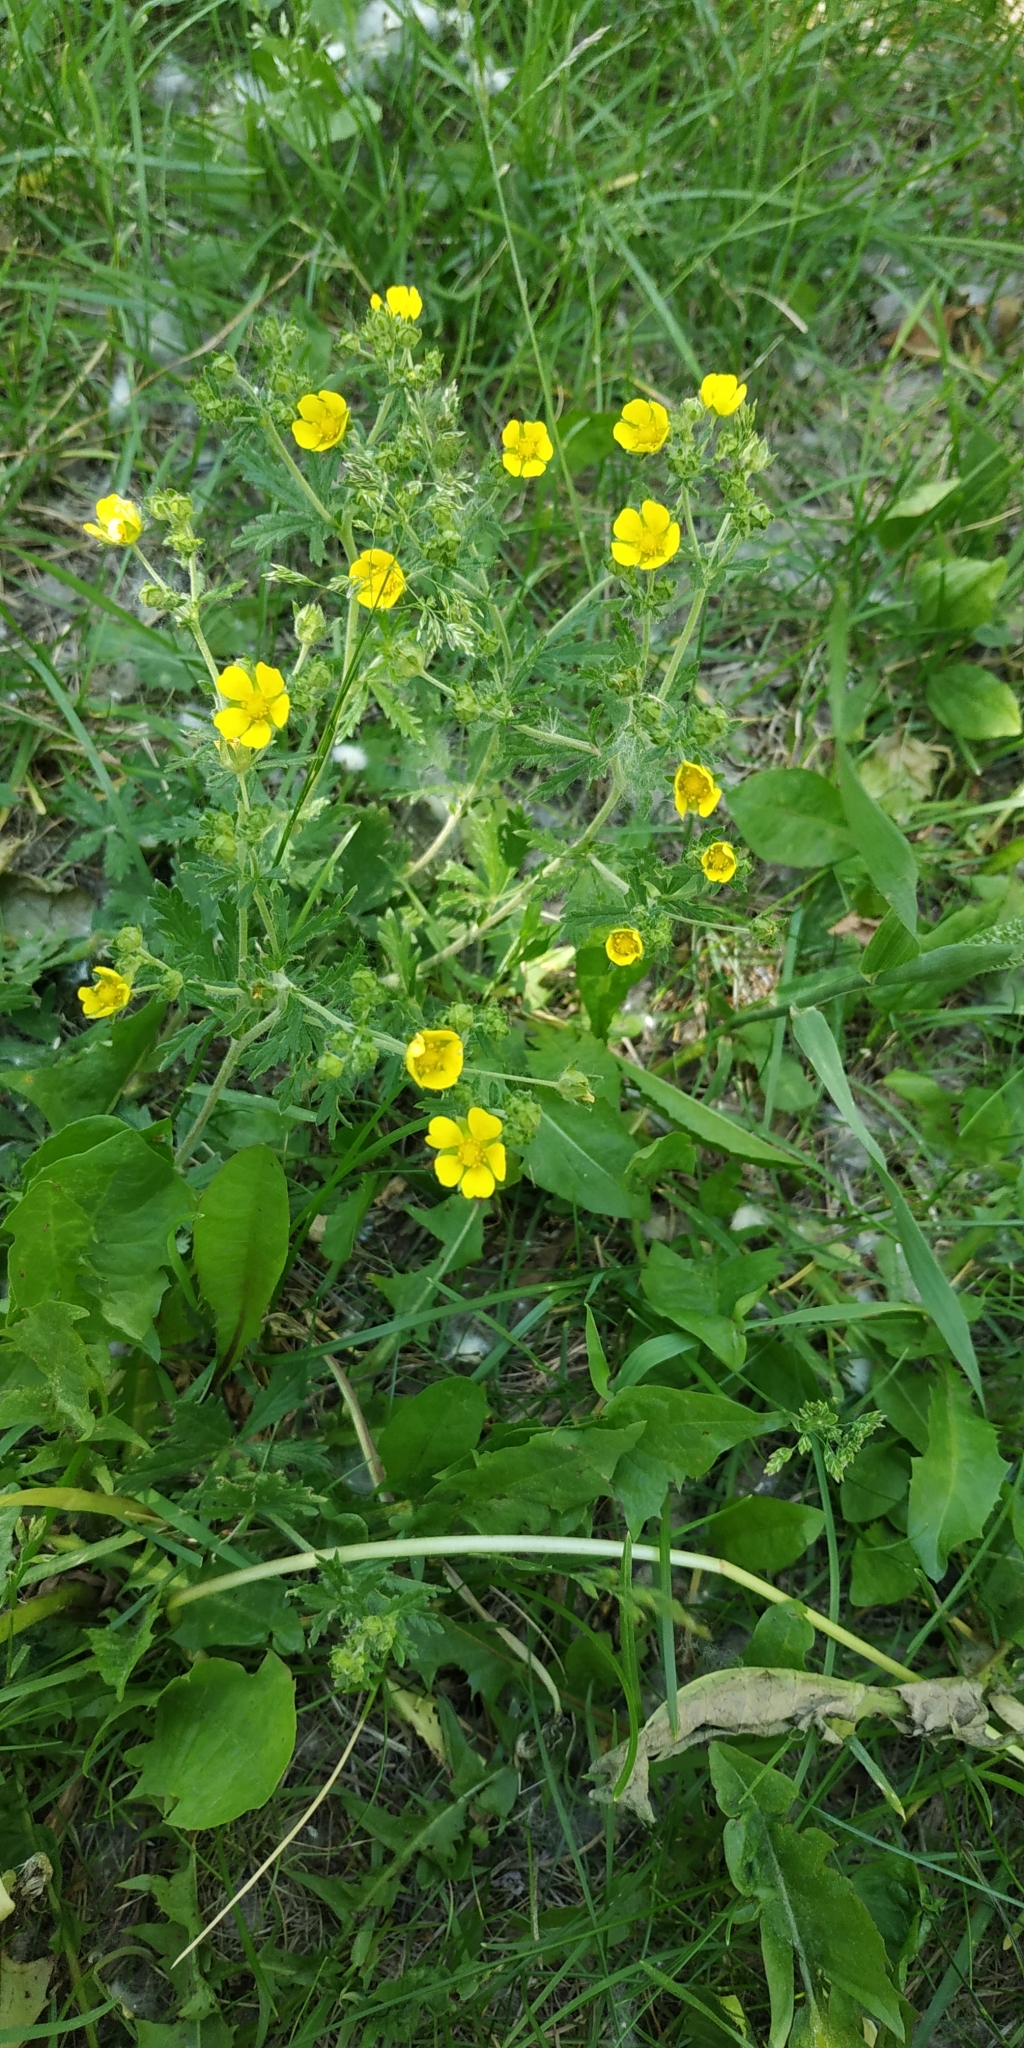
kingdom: Plantae
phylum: Tracheophyta
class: Magnoliopsida
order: Rosales
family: Rosaceae
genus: Potentilla
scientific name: Potentilla argentea
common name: Hoary cinquefoil
